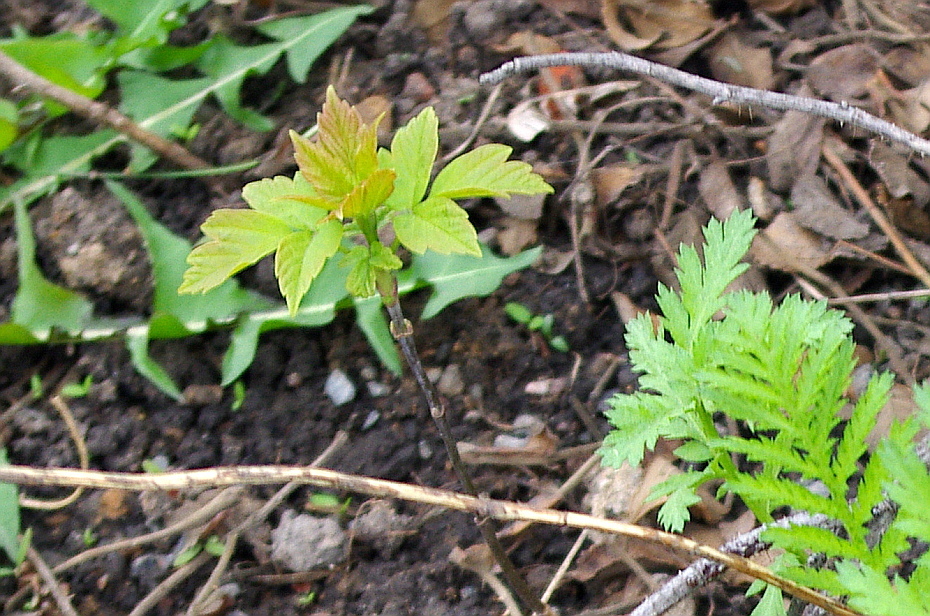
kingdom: Plantae
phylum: Tracheophyta
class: Magnoliopsida
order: Sapindales
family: Sapindaceae
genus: Acer
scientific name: Acer negundo
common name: Ashleaf maple
